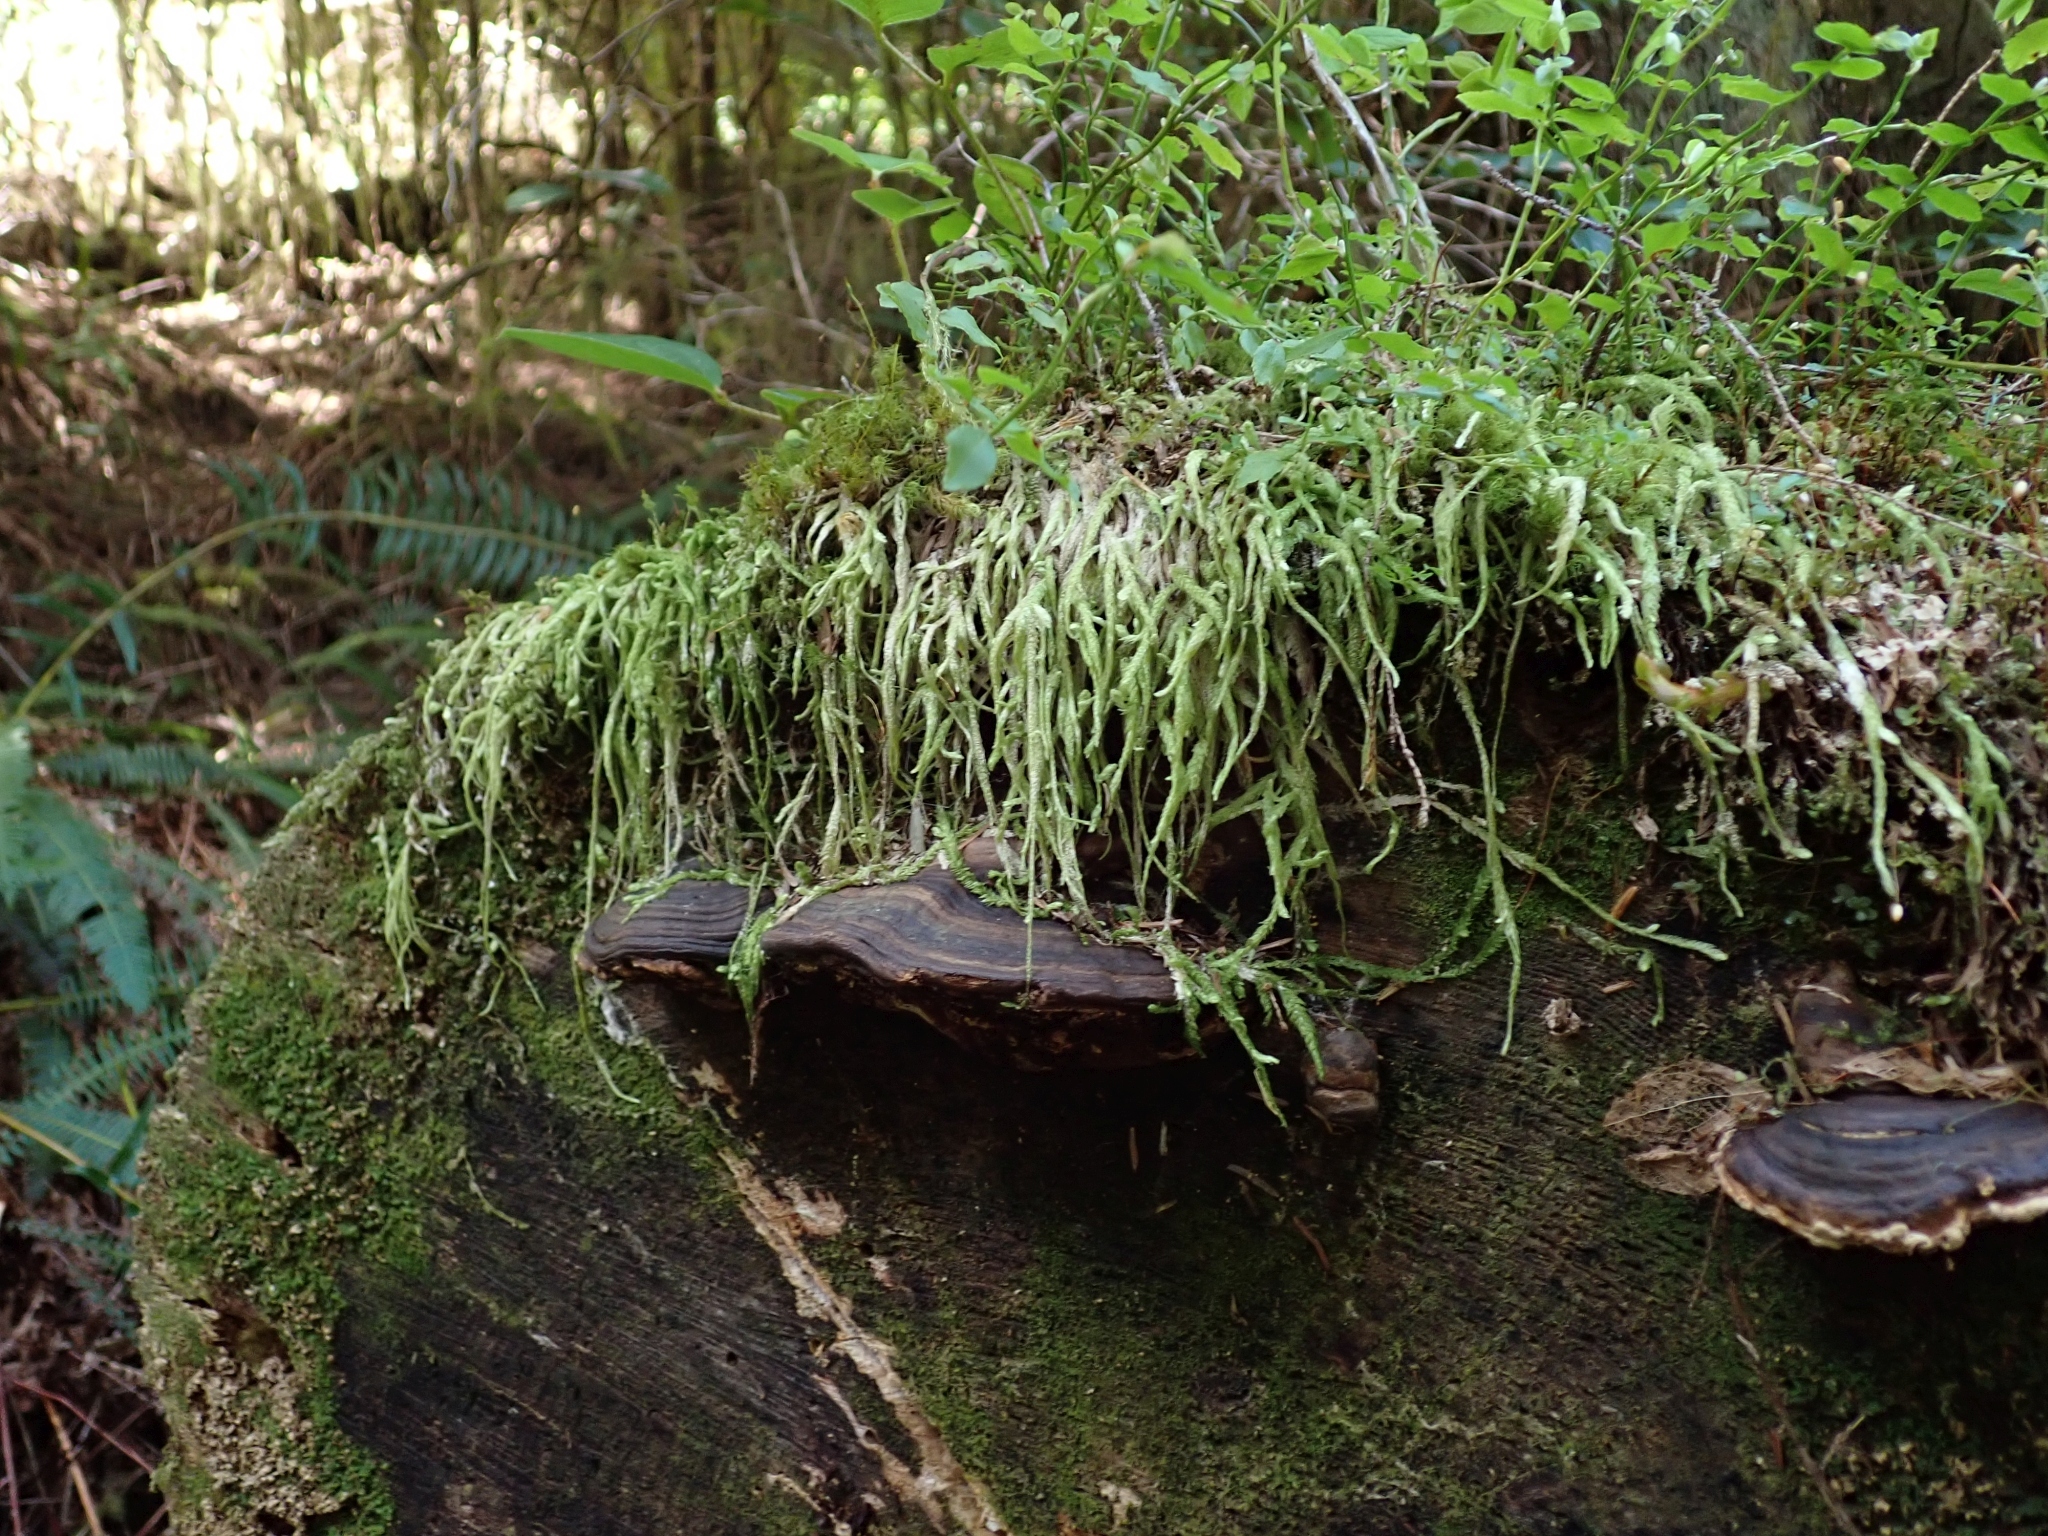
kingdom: Plantae
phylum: Bryophyta
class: Bryopsida
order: Hypnales
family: Plagiotheciaceae
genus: Plagiothecium
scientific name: Plagiothecium undulatum
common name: Waved silk-moss
